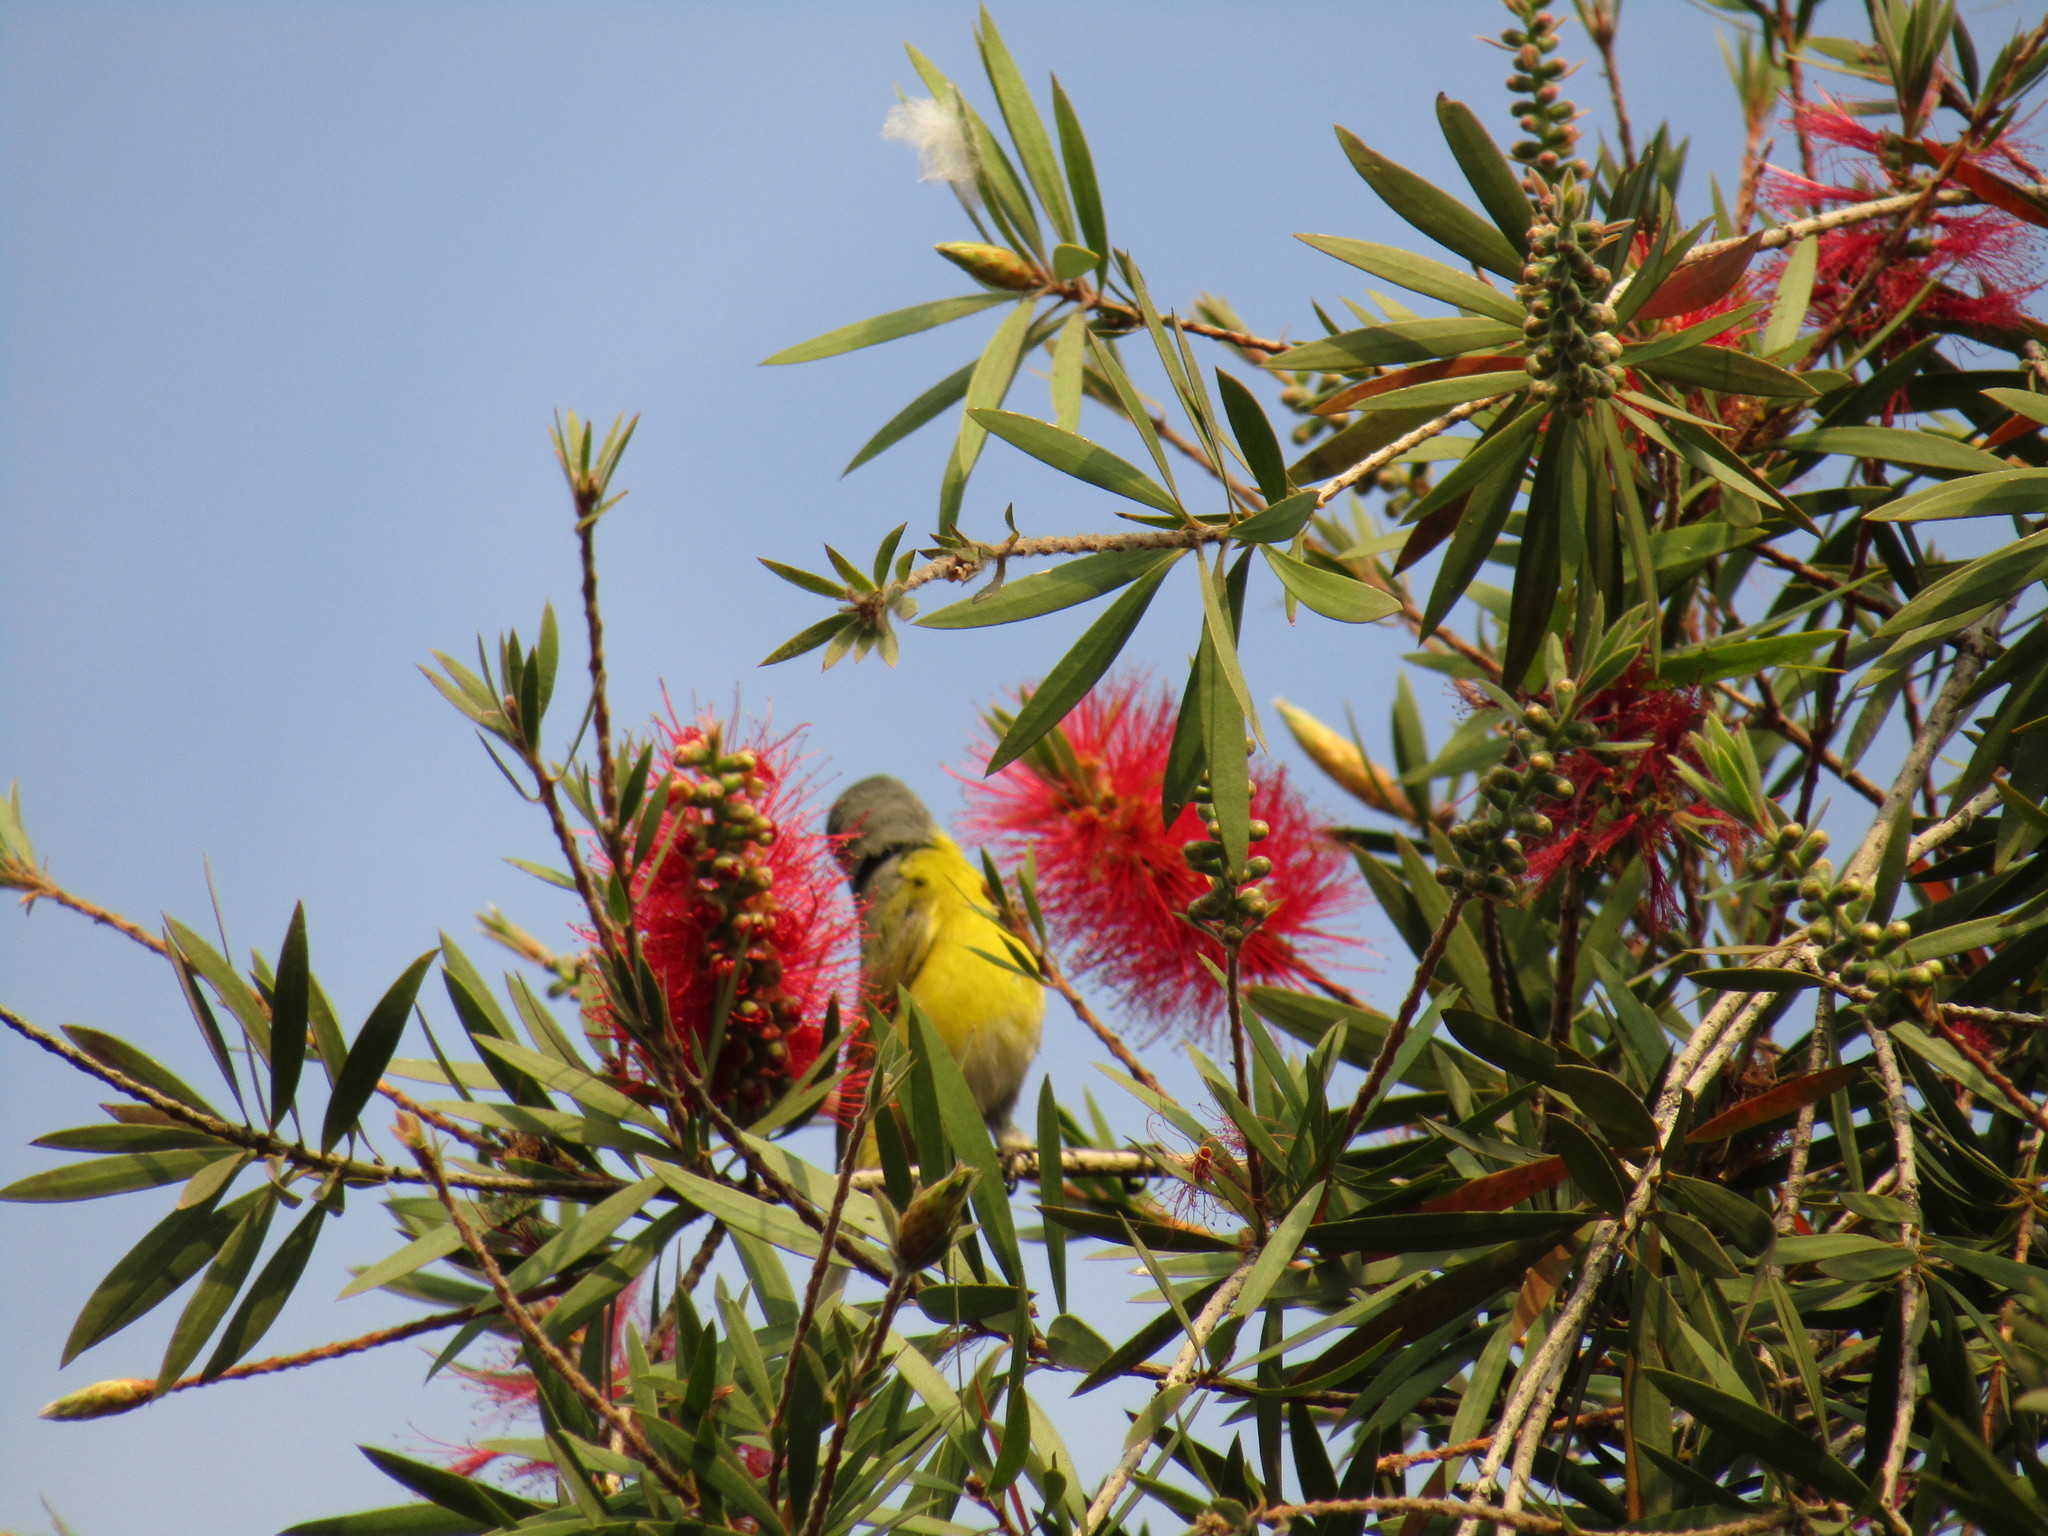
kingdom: Animalia
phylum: Chordata
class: Aves
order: Passeriformes
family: Parulidae
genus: Leiothlypis
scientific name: Leiothlypis ruficapilla
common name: Nashville warbler
